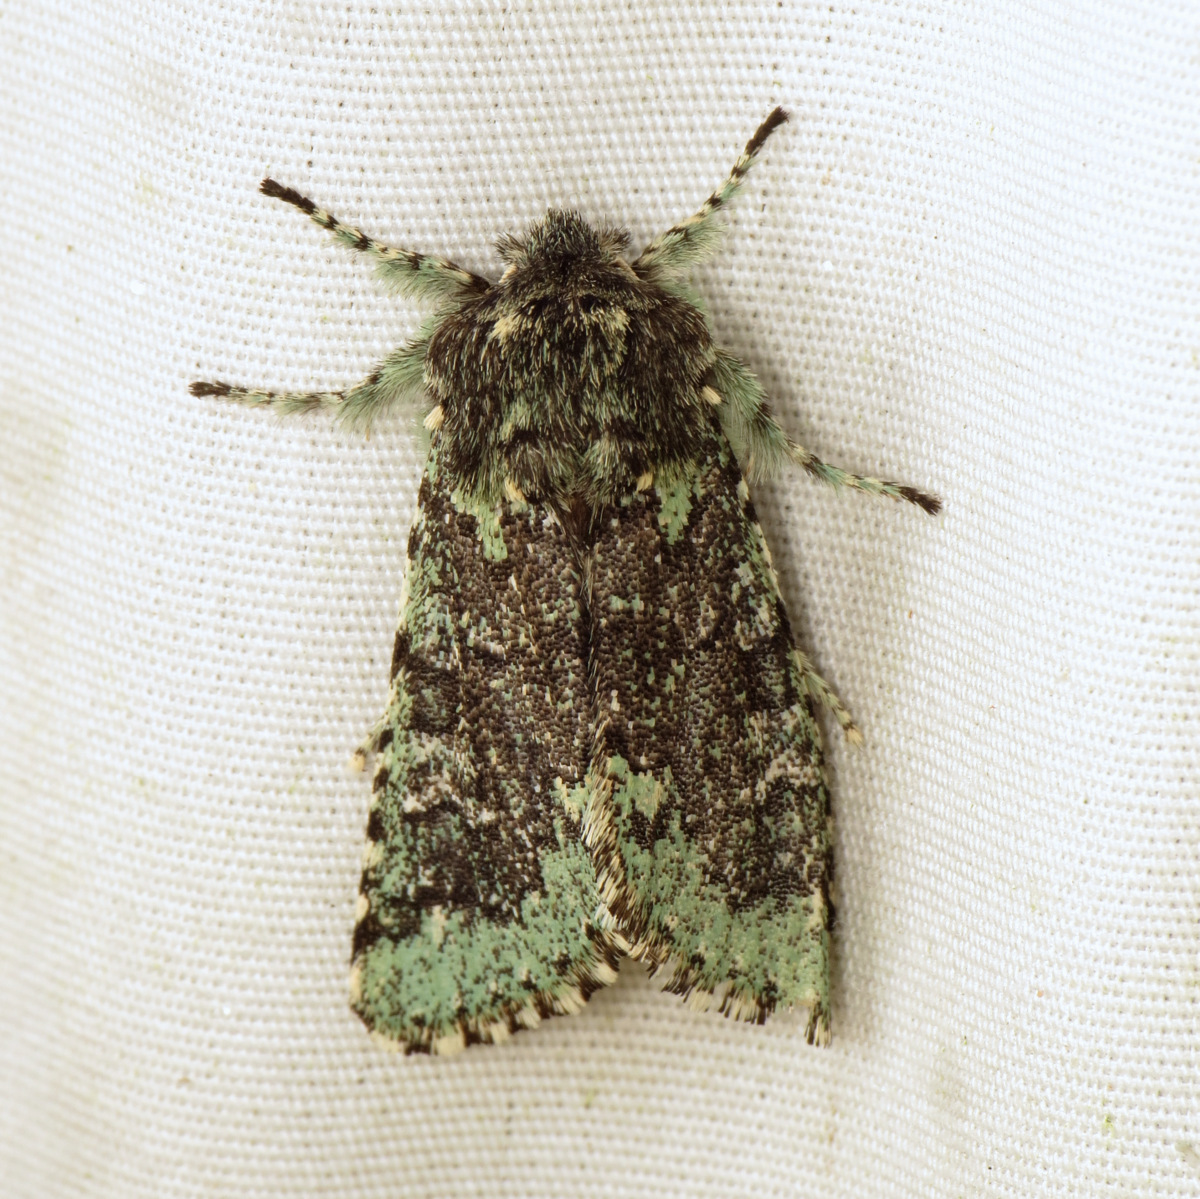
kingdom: Animalia
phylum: Arthropoda
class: Insecta
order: Lepidoptera
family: Noctuidae
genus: Feralia
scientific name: Feralia major
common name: Major sallow
